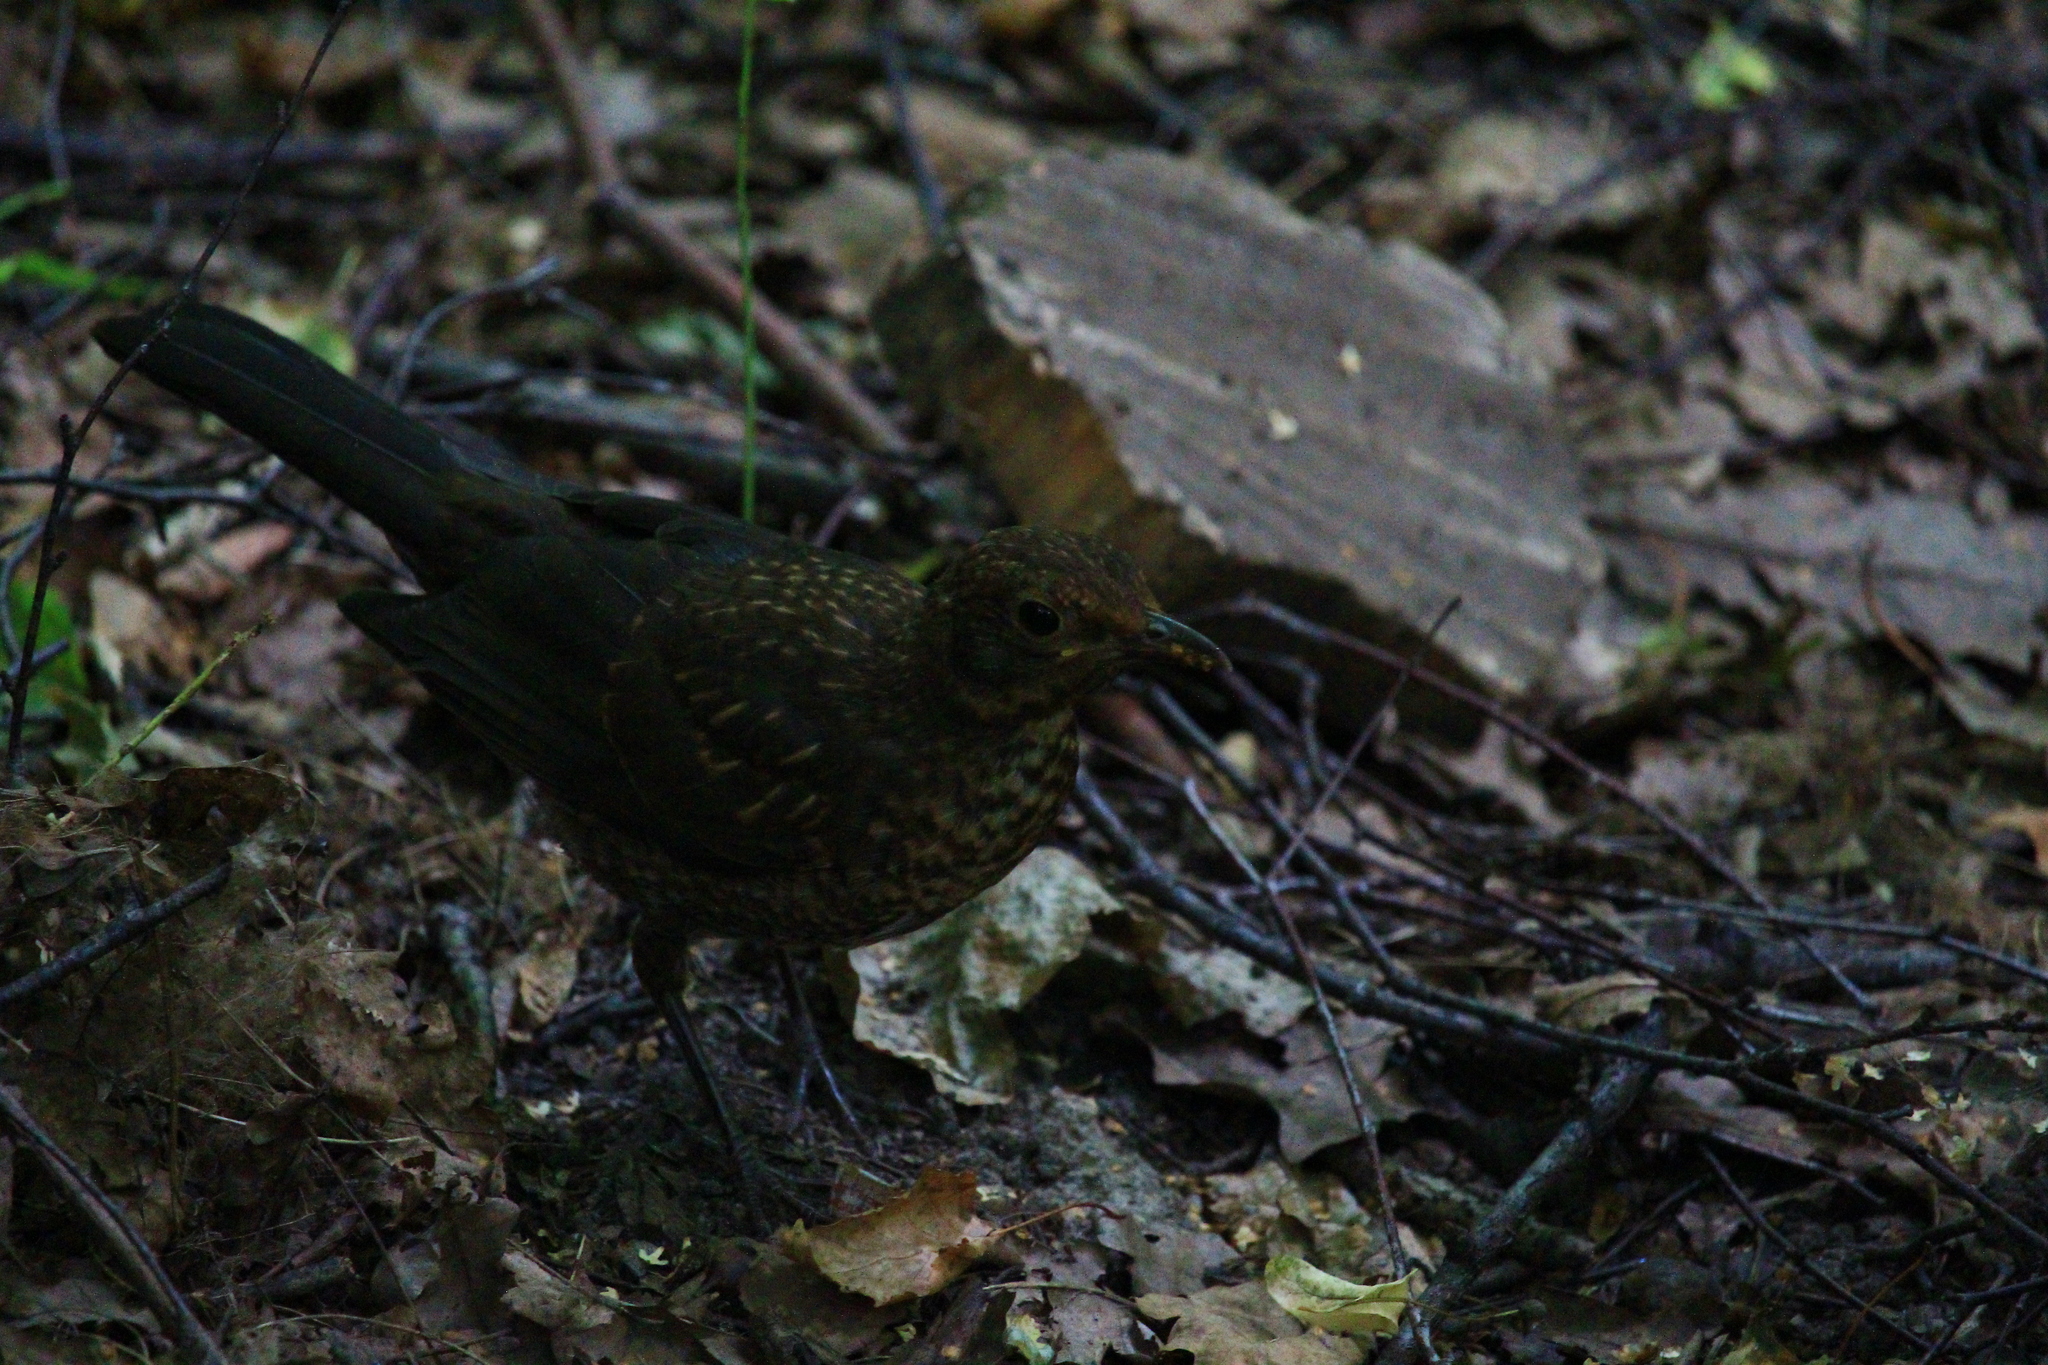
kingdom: Animalia
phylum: Chordata
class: Aves
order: Passeriformes
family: Turdidae
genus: Turdus
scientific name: Turdus merula
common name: Common blackbird
